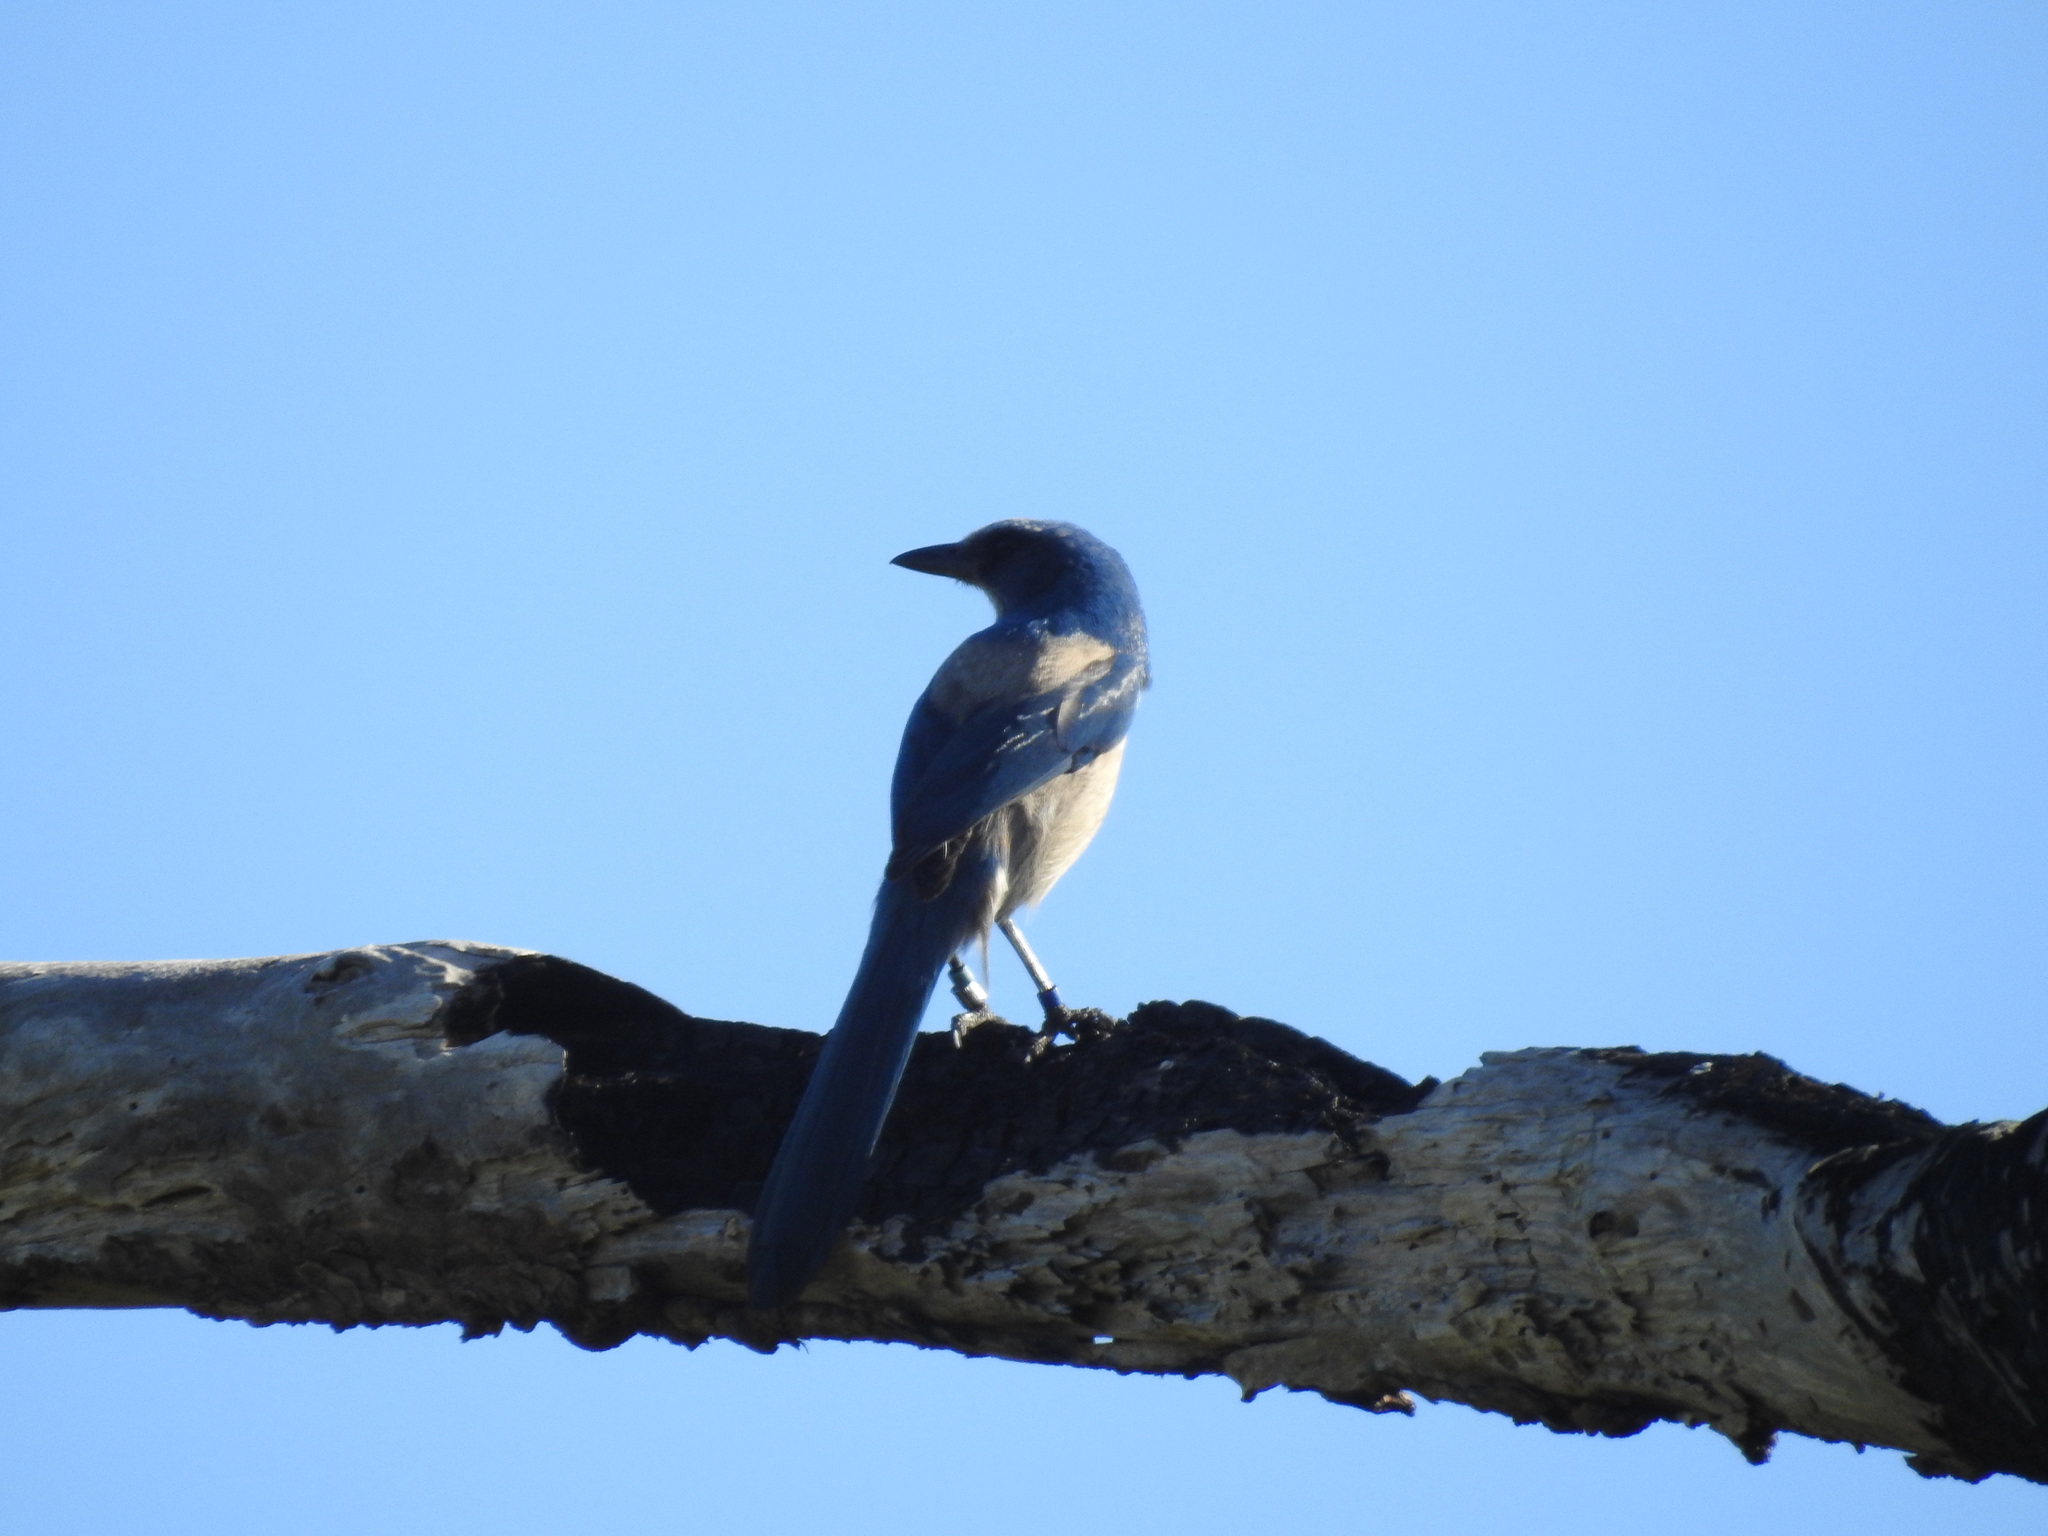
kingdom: Animalia
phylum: Chordata
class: Aves
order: Passeriformes
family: Corvidae
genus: Aphelocoma
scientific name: Aphelocoma coerulescens
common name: Florida scrub jay
